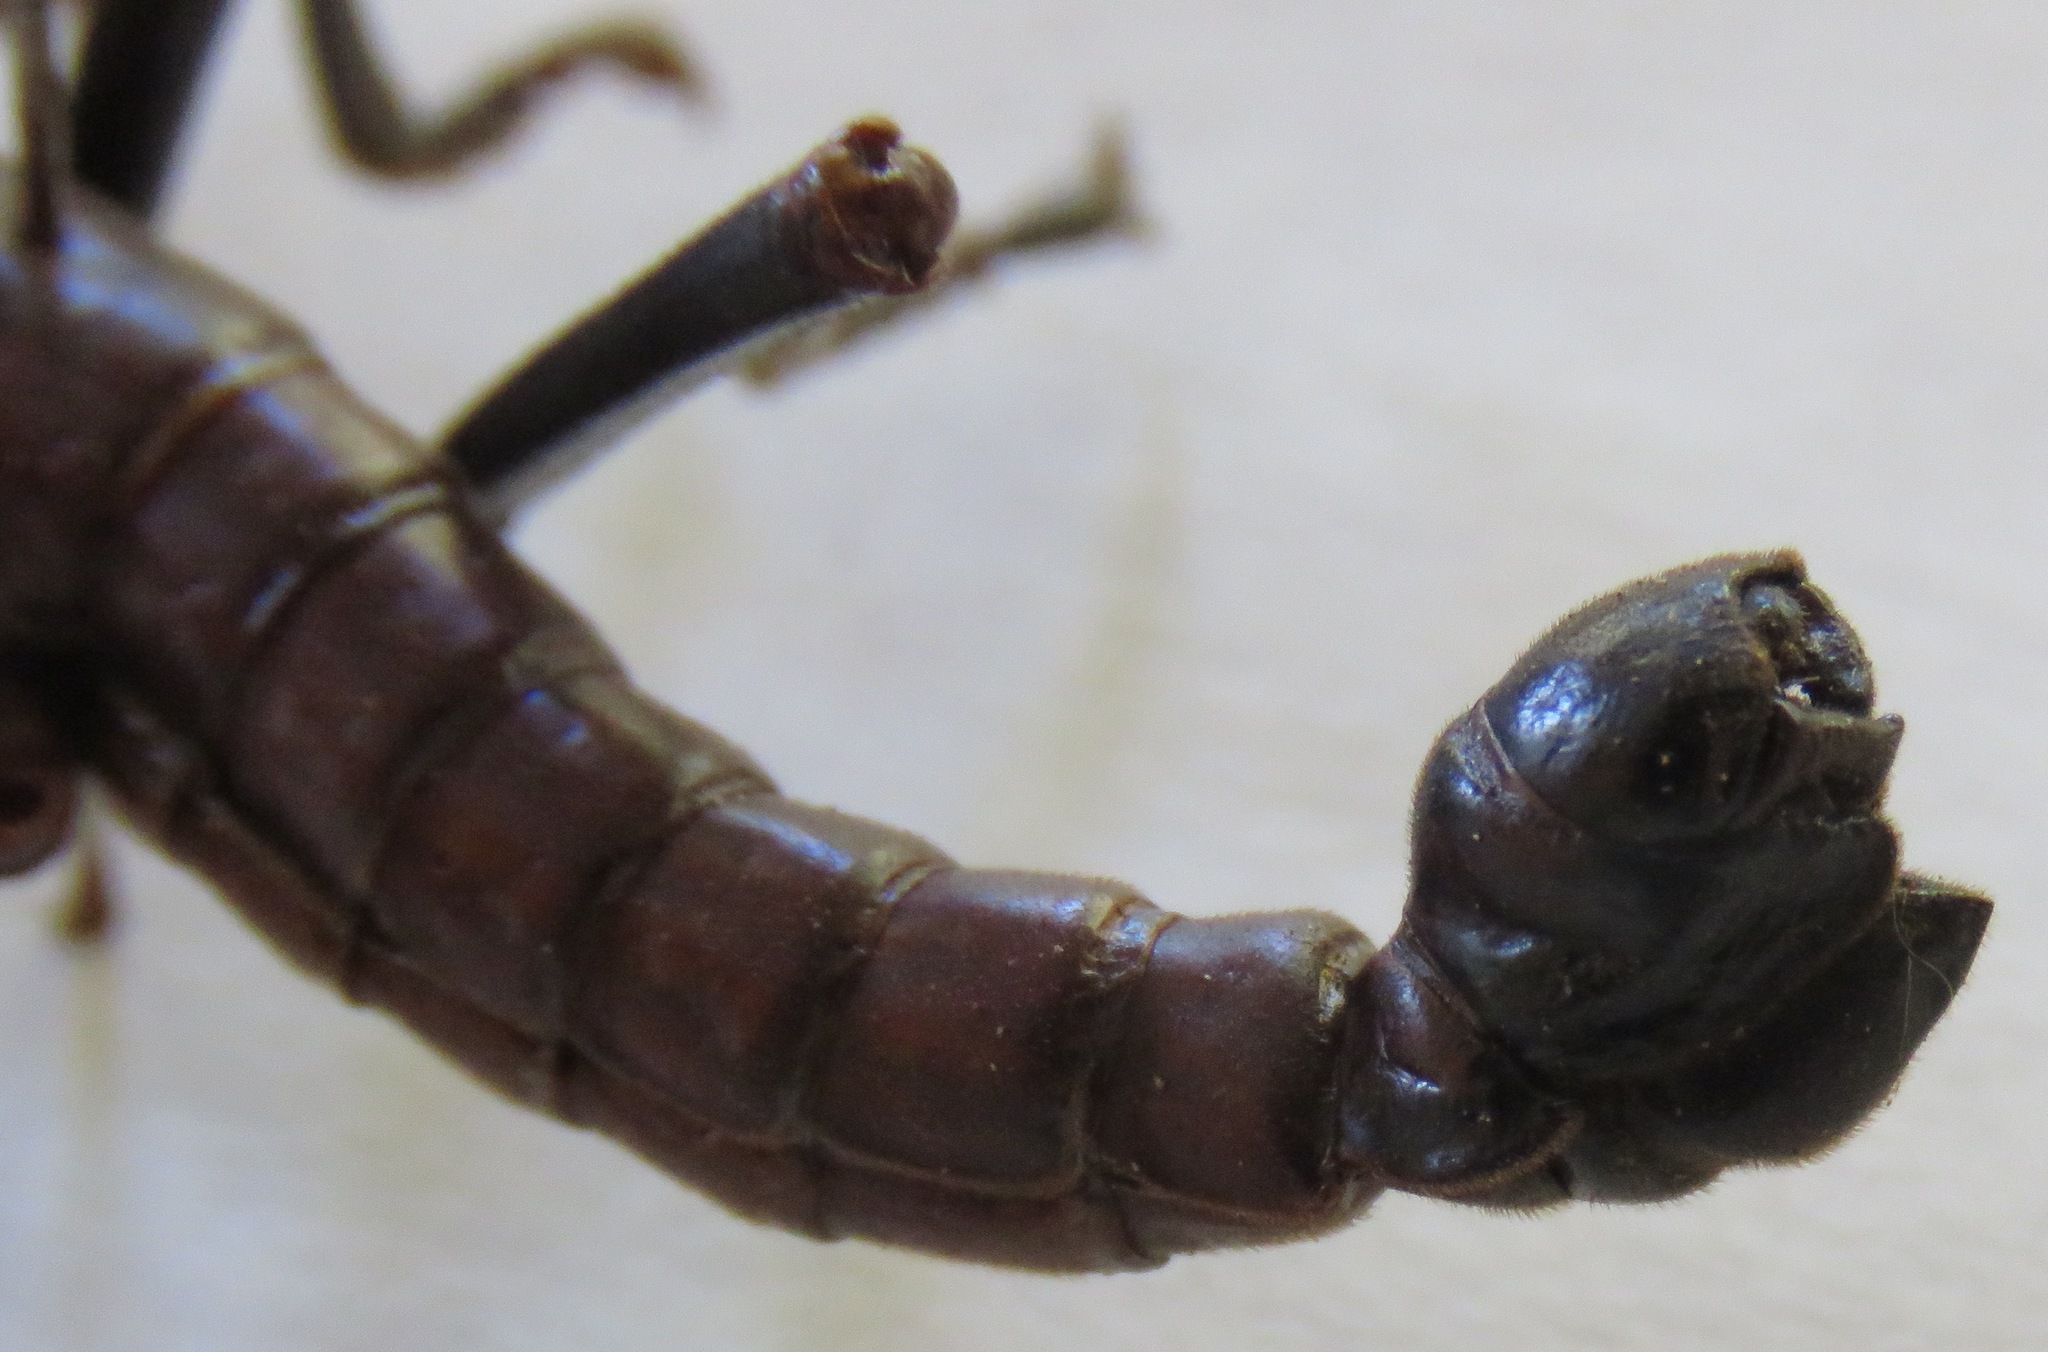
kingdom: Animalia
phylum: Arthropoda
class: Insecta
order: Phasmida
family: Pseudophasmatidae
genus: Autolyca
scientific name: Autolyca herculeana
